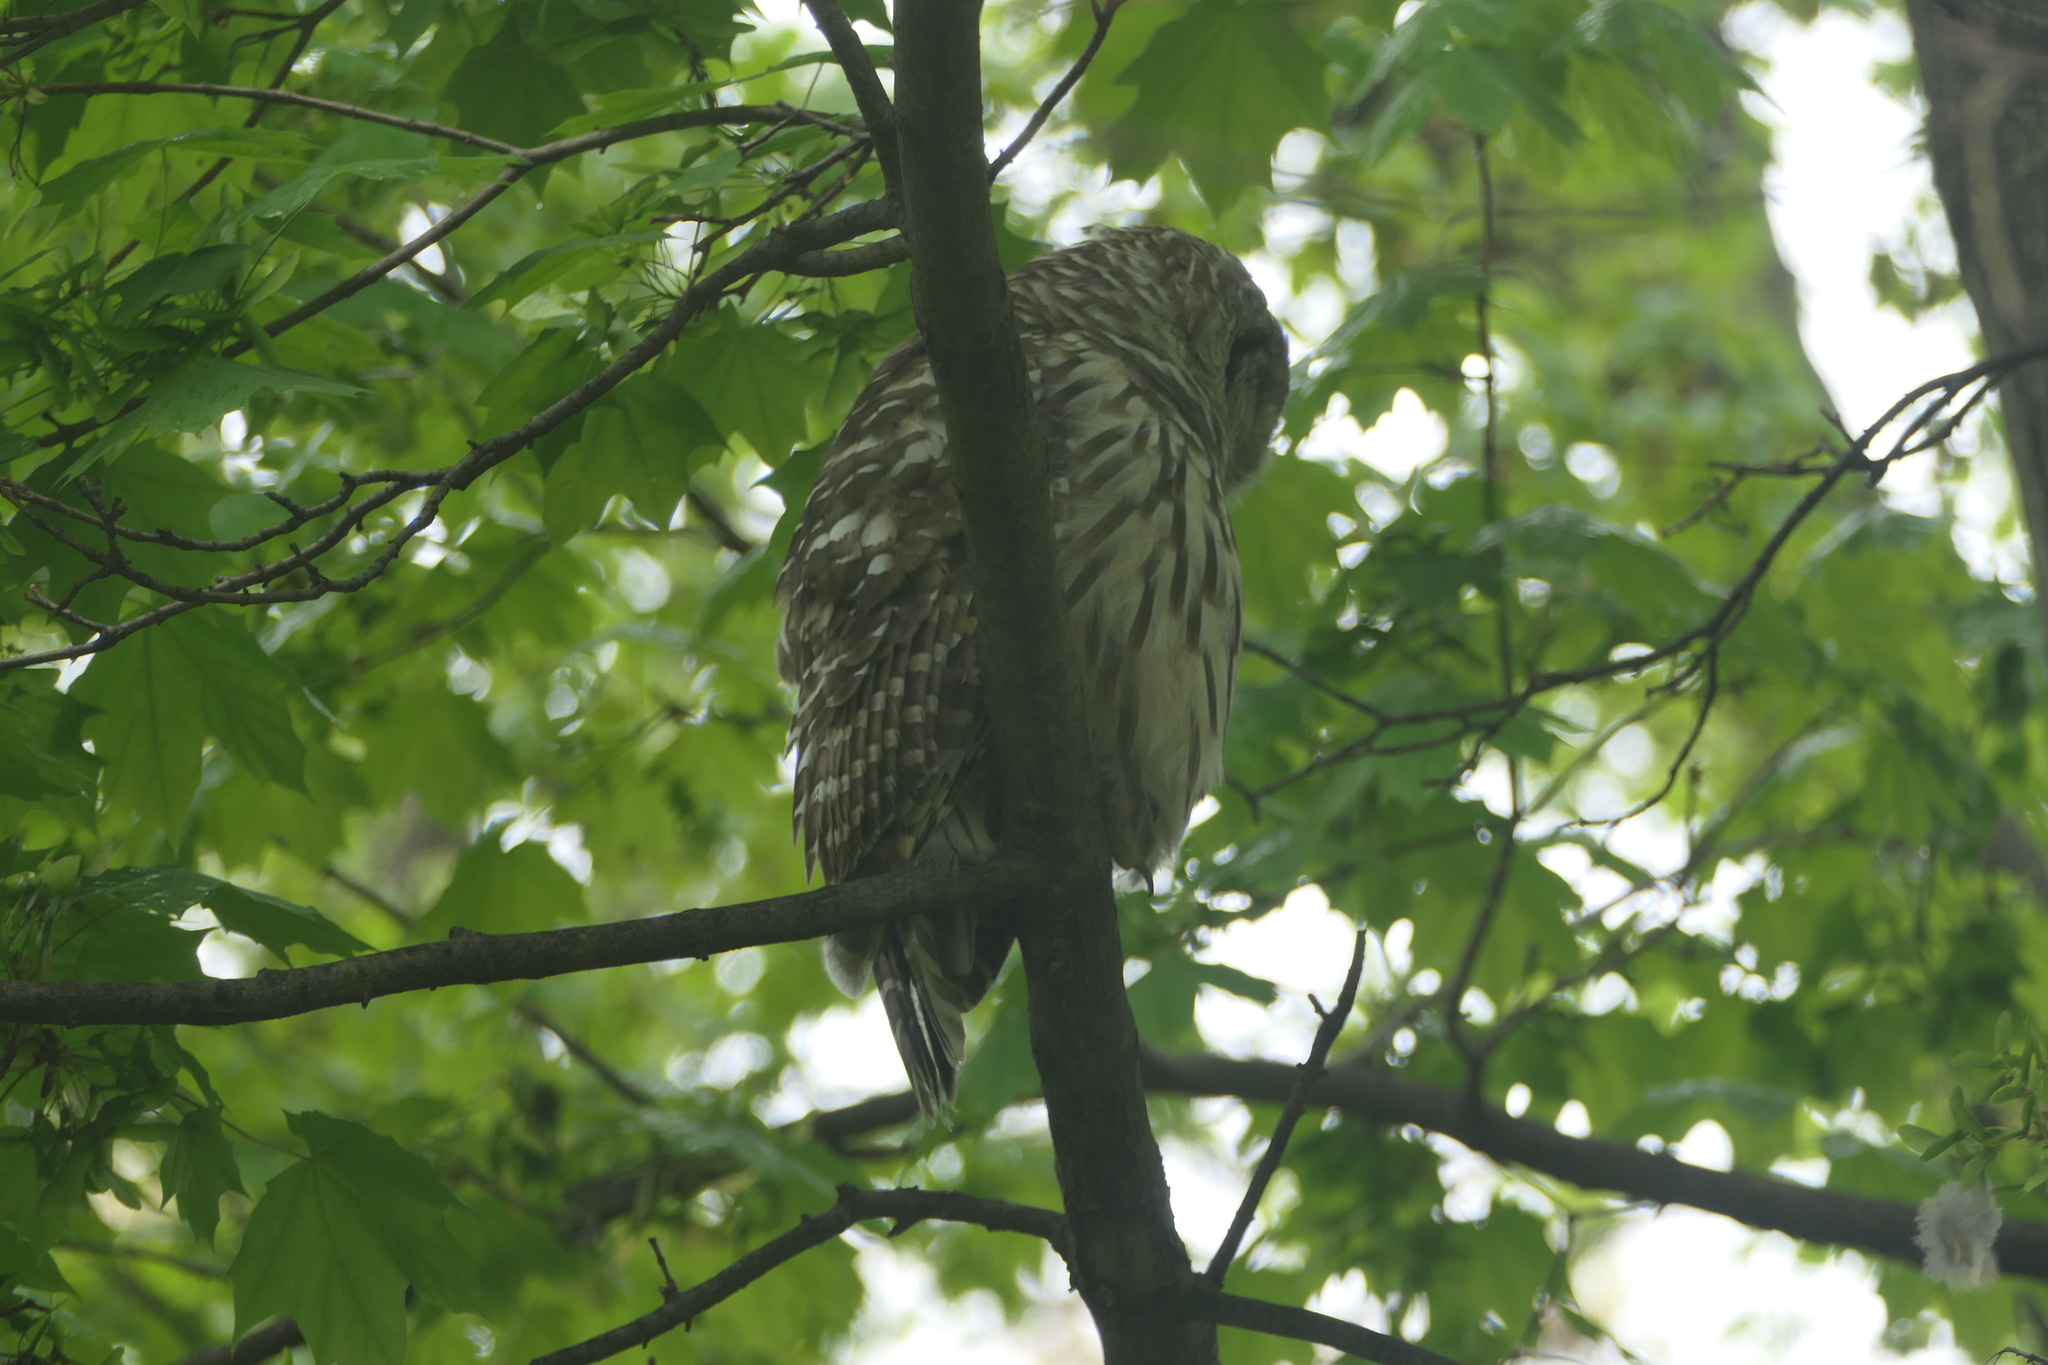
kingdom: Animalia
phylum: Chordata
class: Aves
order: Strigiformes
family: Strigidae
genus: Strix
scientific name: Strix varia
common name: Barred owl
